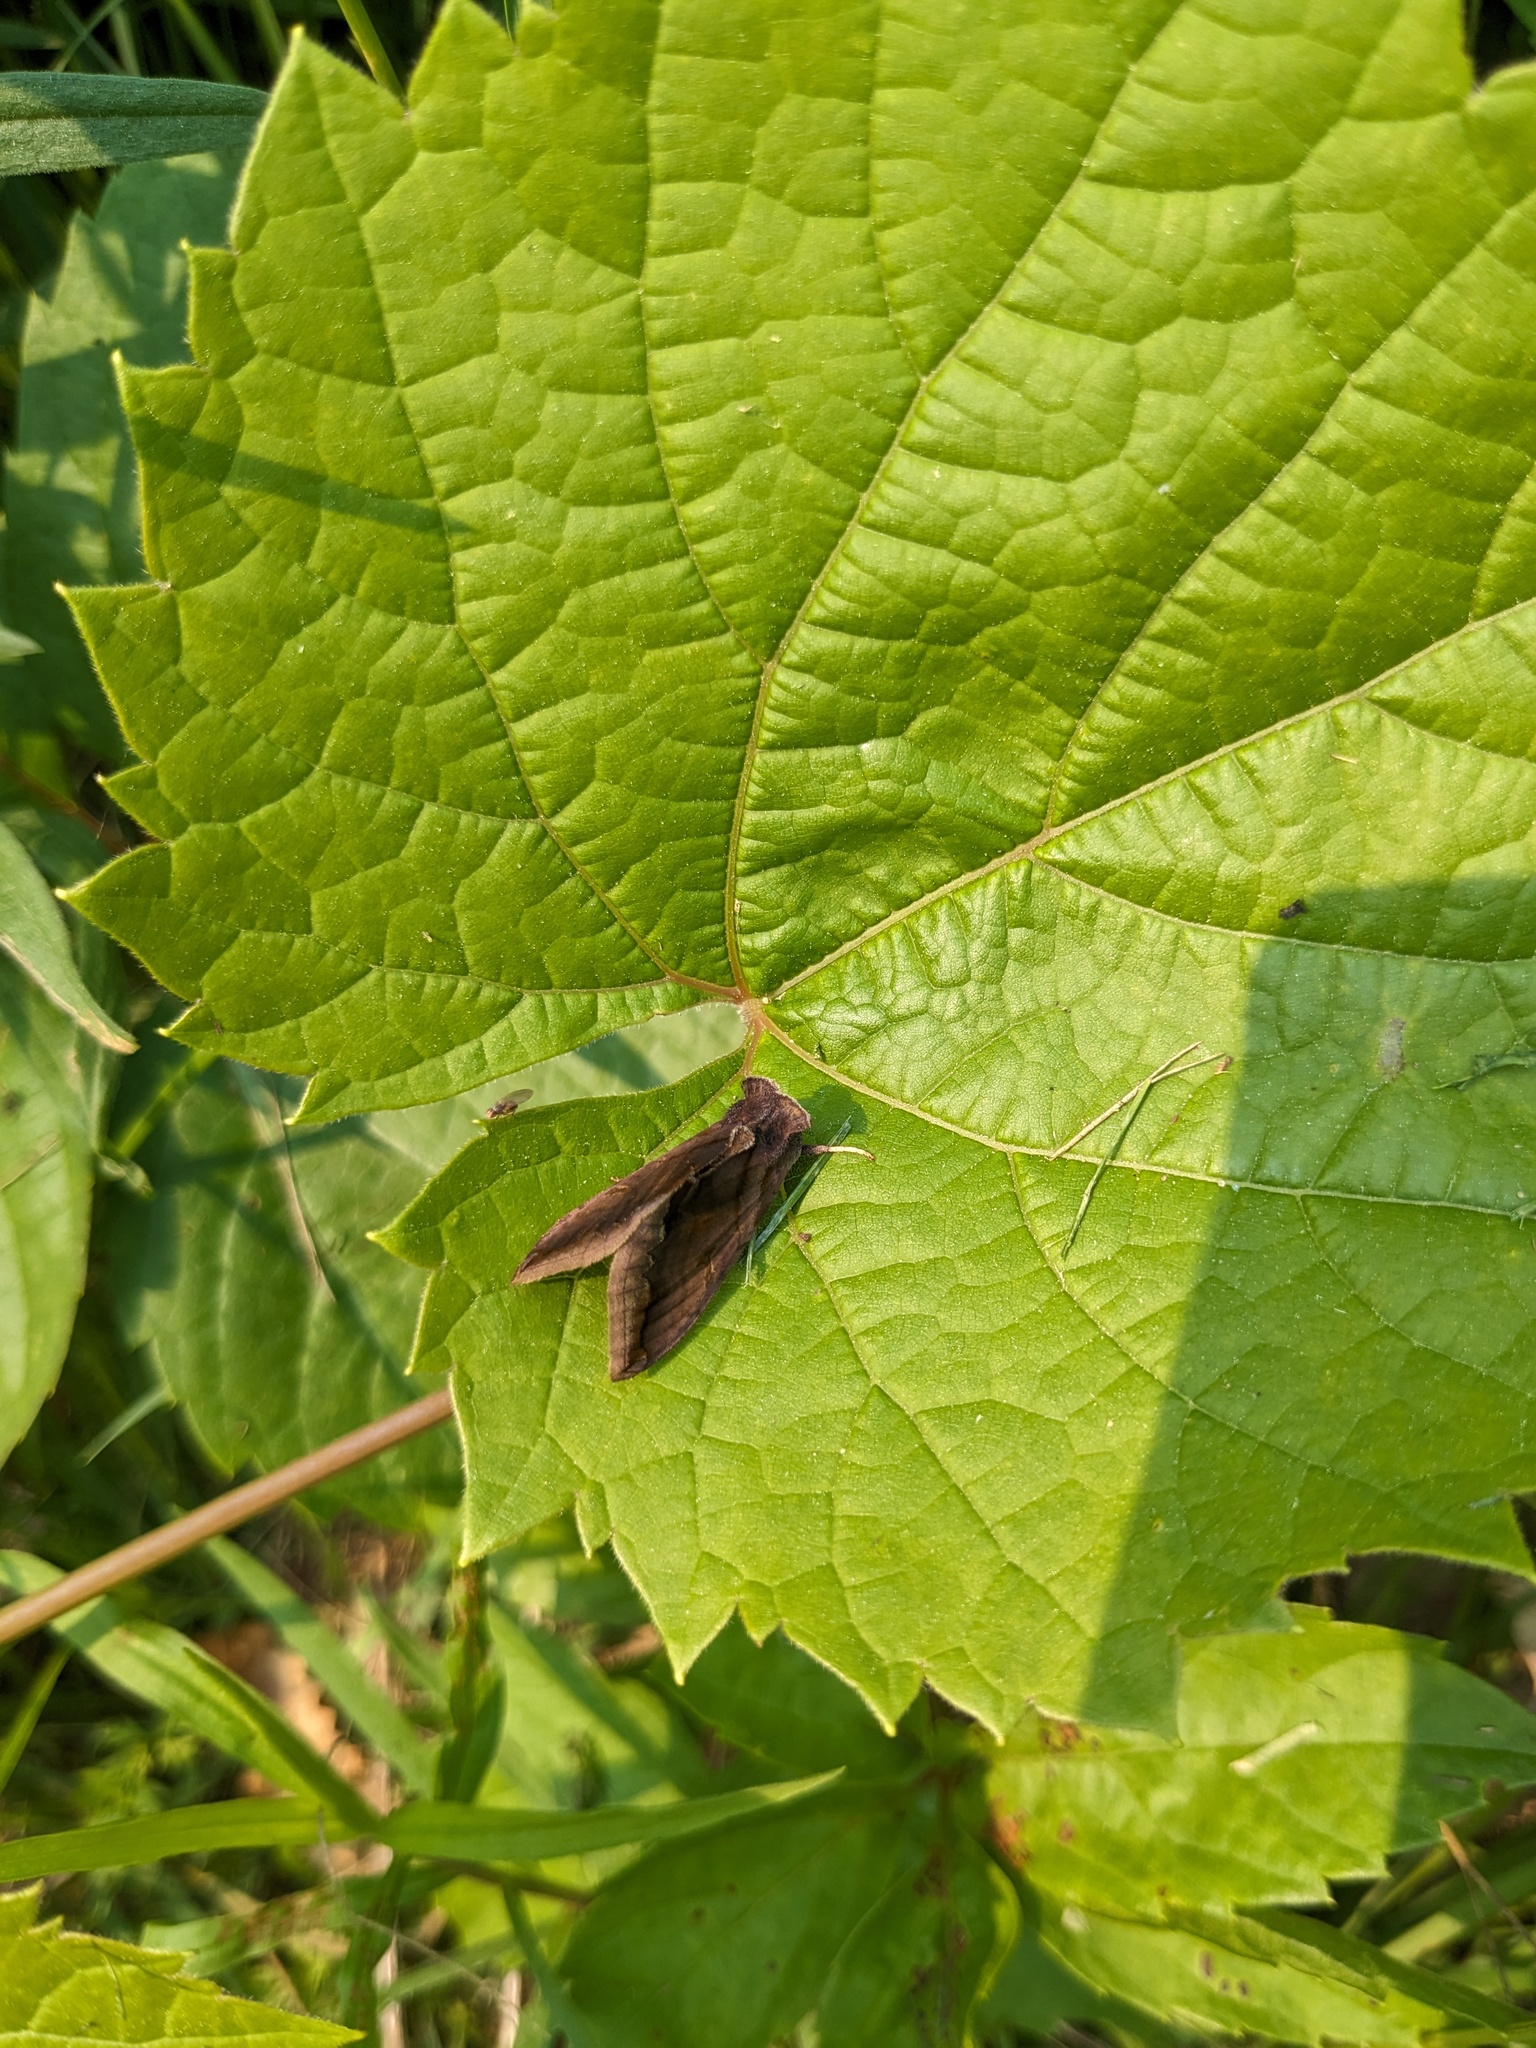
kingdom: Animalia
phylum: Arthropoda
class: Insecta
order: Lepidoptera
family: Noctuidae
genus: Allagrapha
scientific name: Allagrapha aerea
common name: Unspotted looper moth
